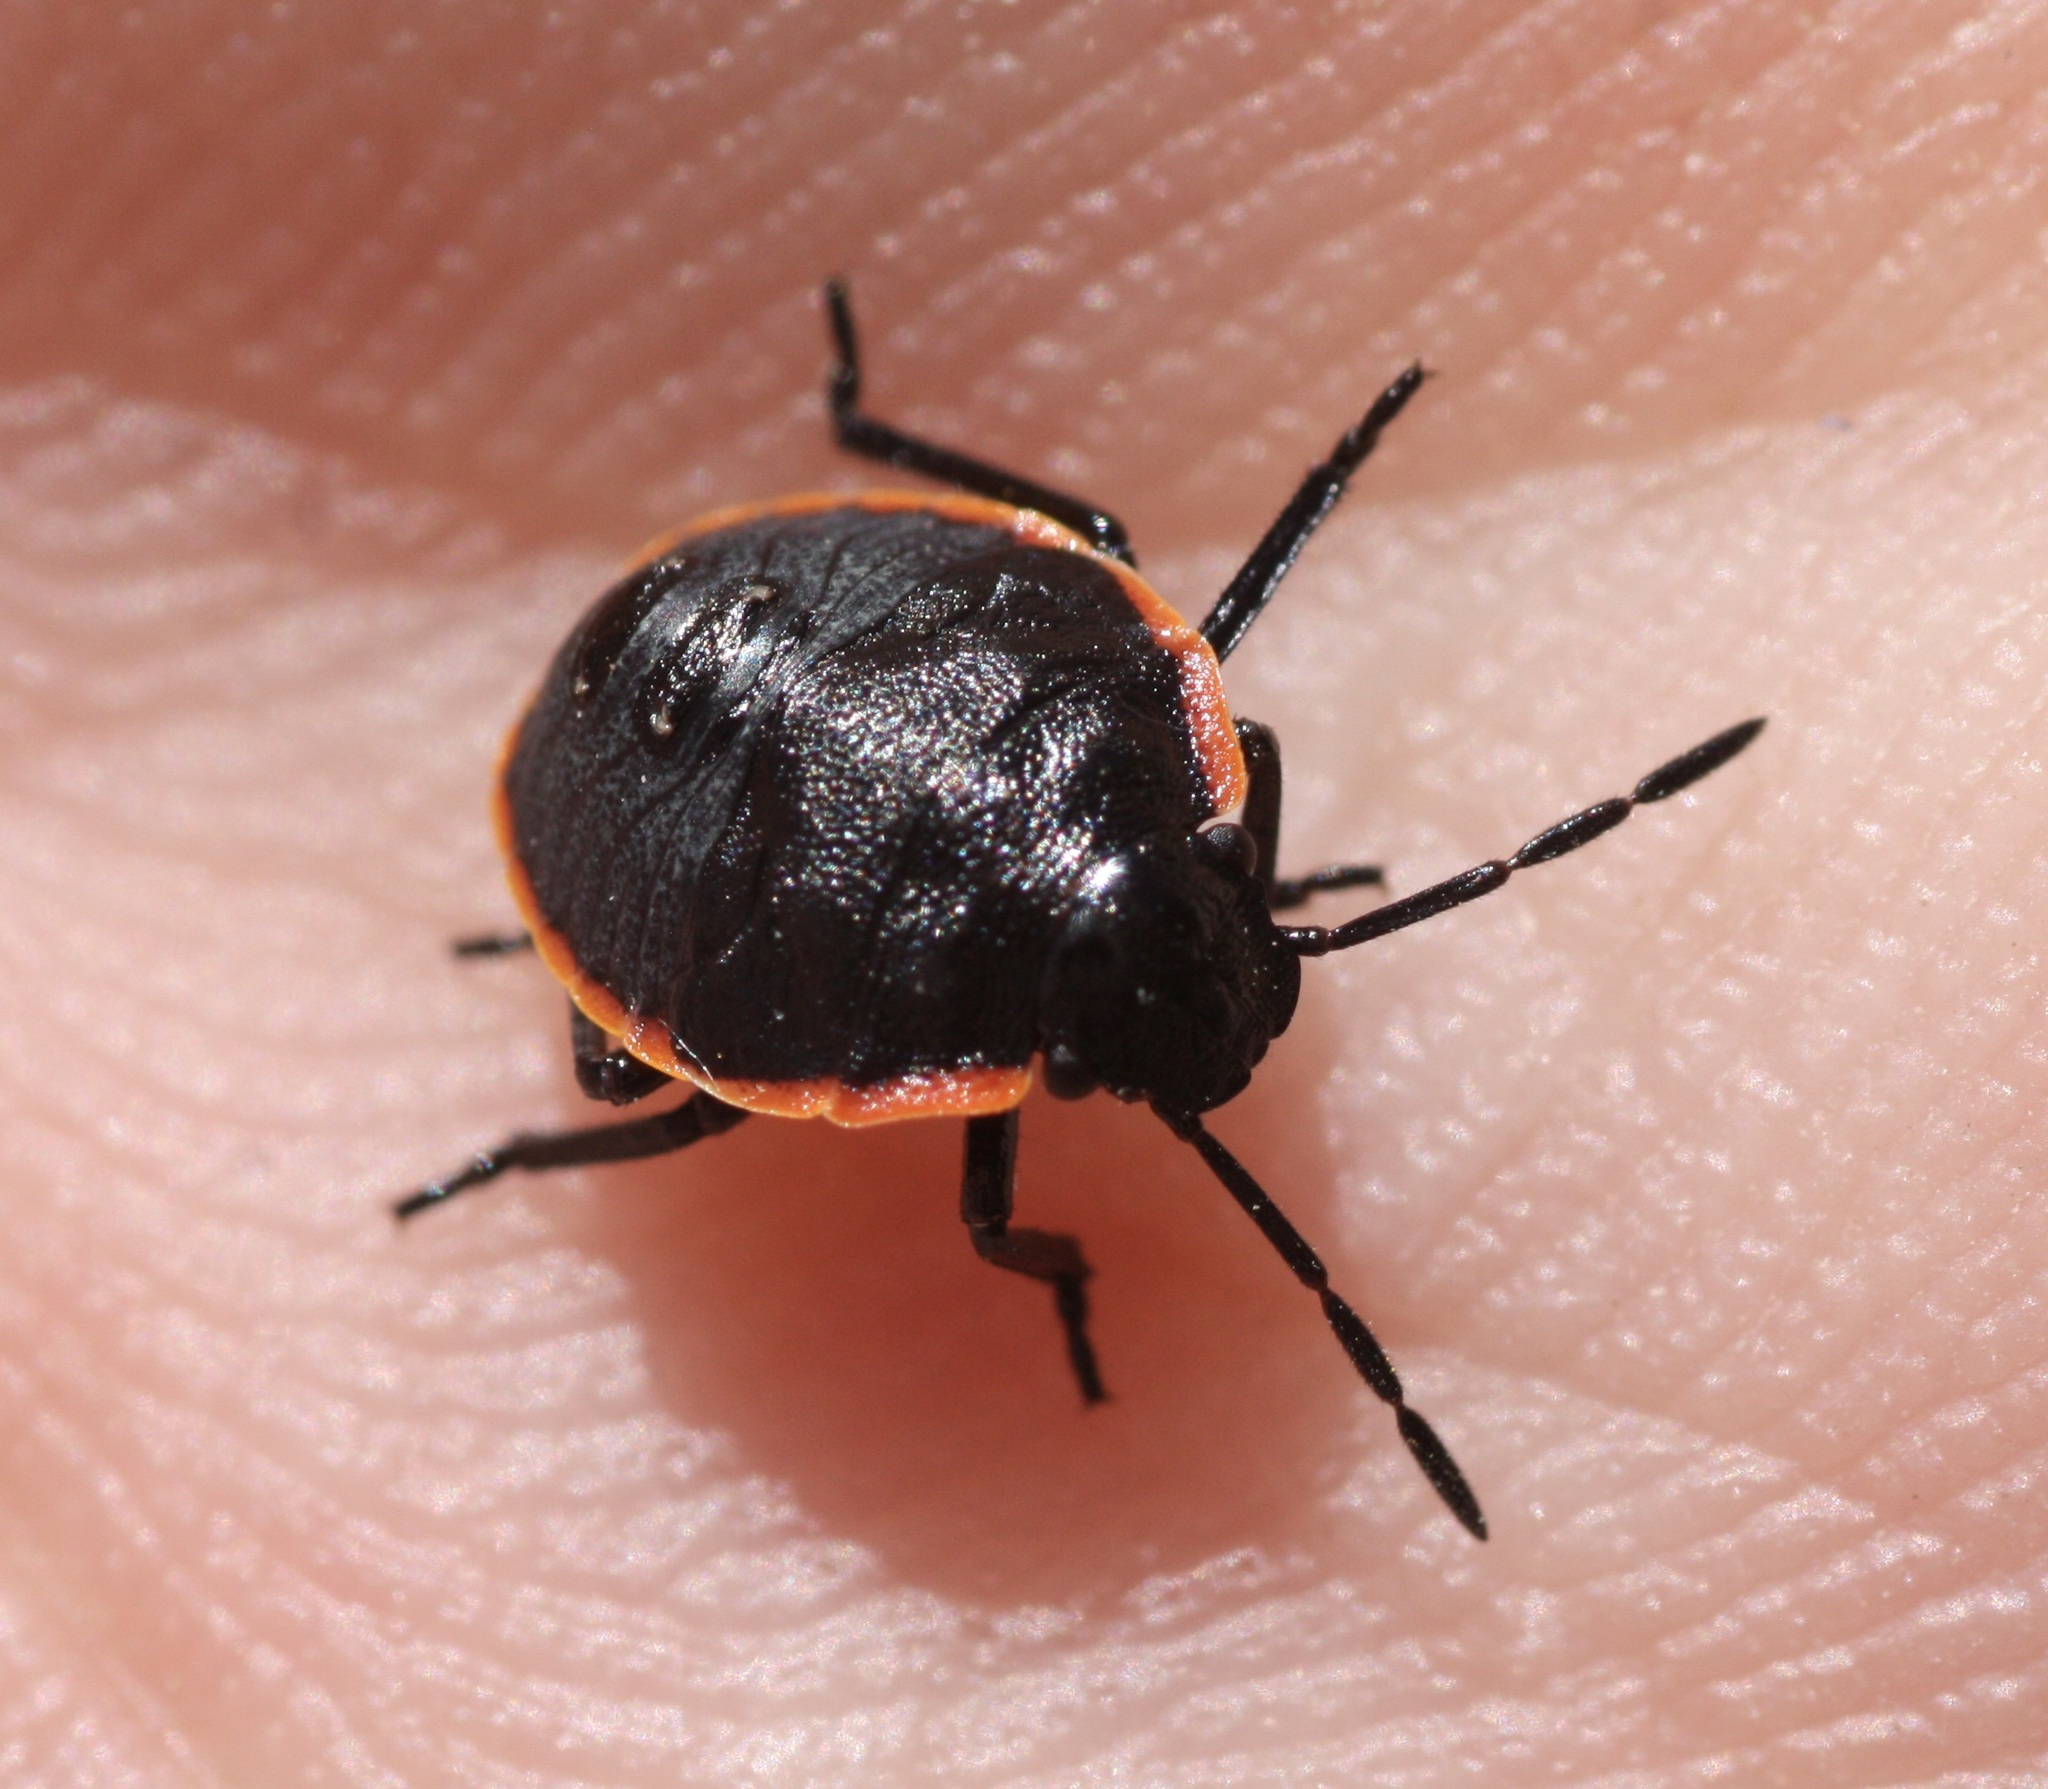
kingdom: Animalia
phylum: Arthropoda
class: Insecta
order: Hemiptera
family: Pentatomidae
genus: Chlorochroa
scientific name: Chlorochroa ligata
